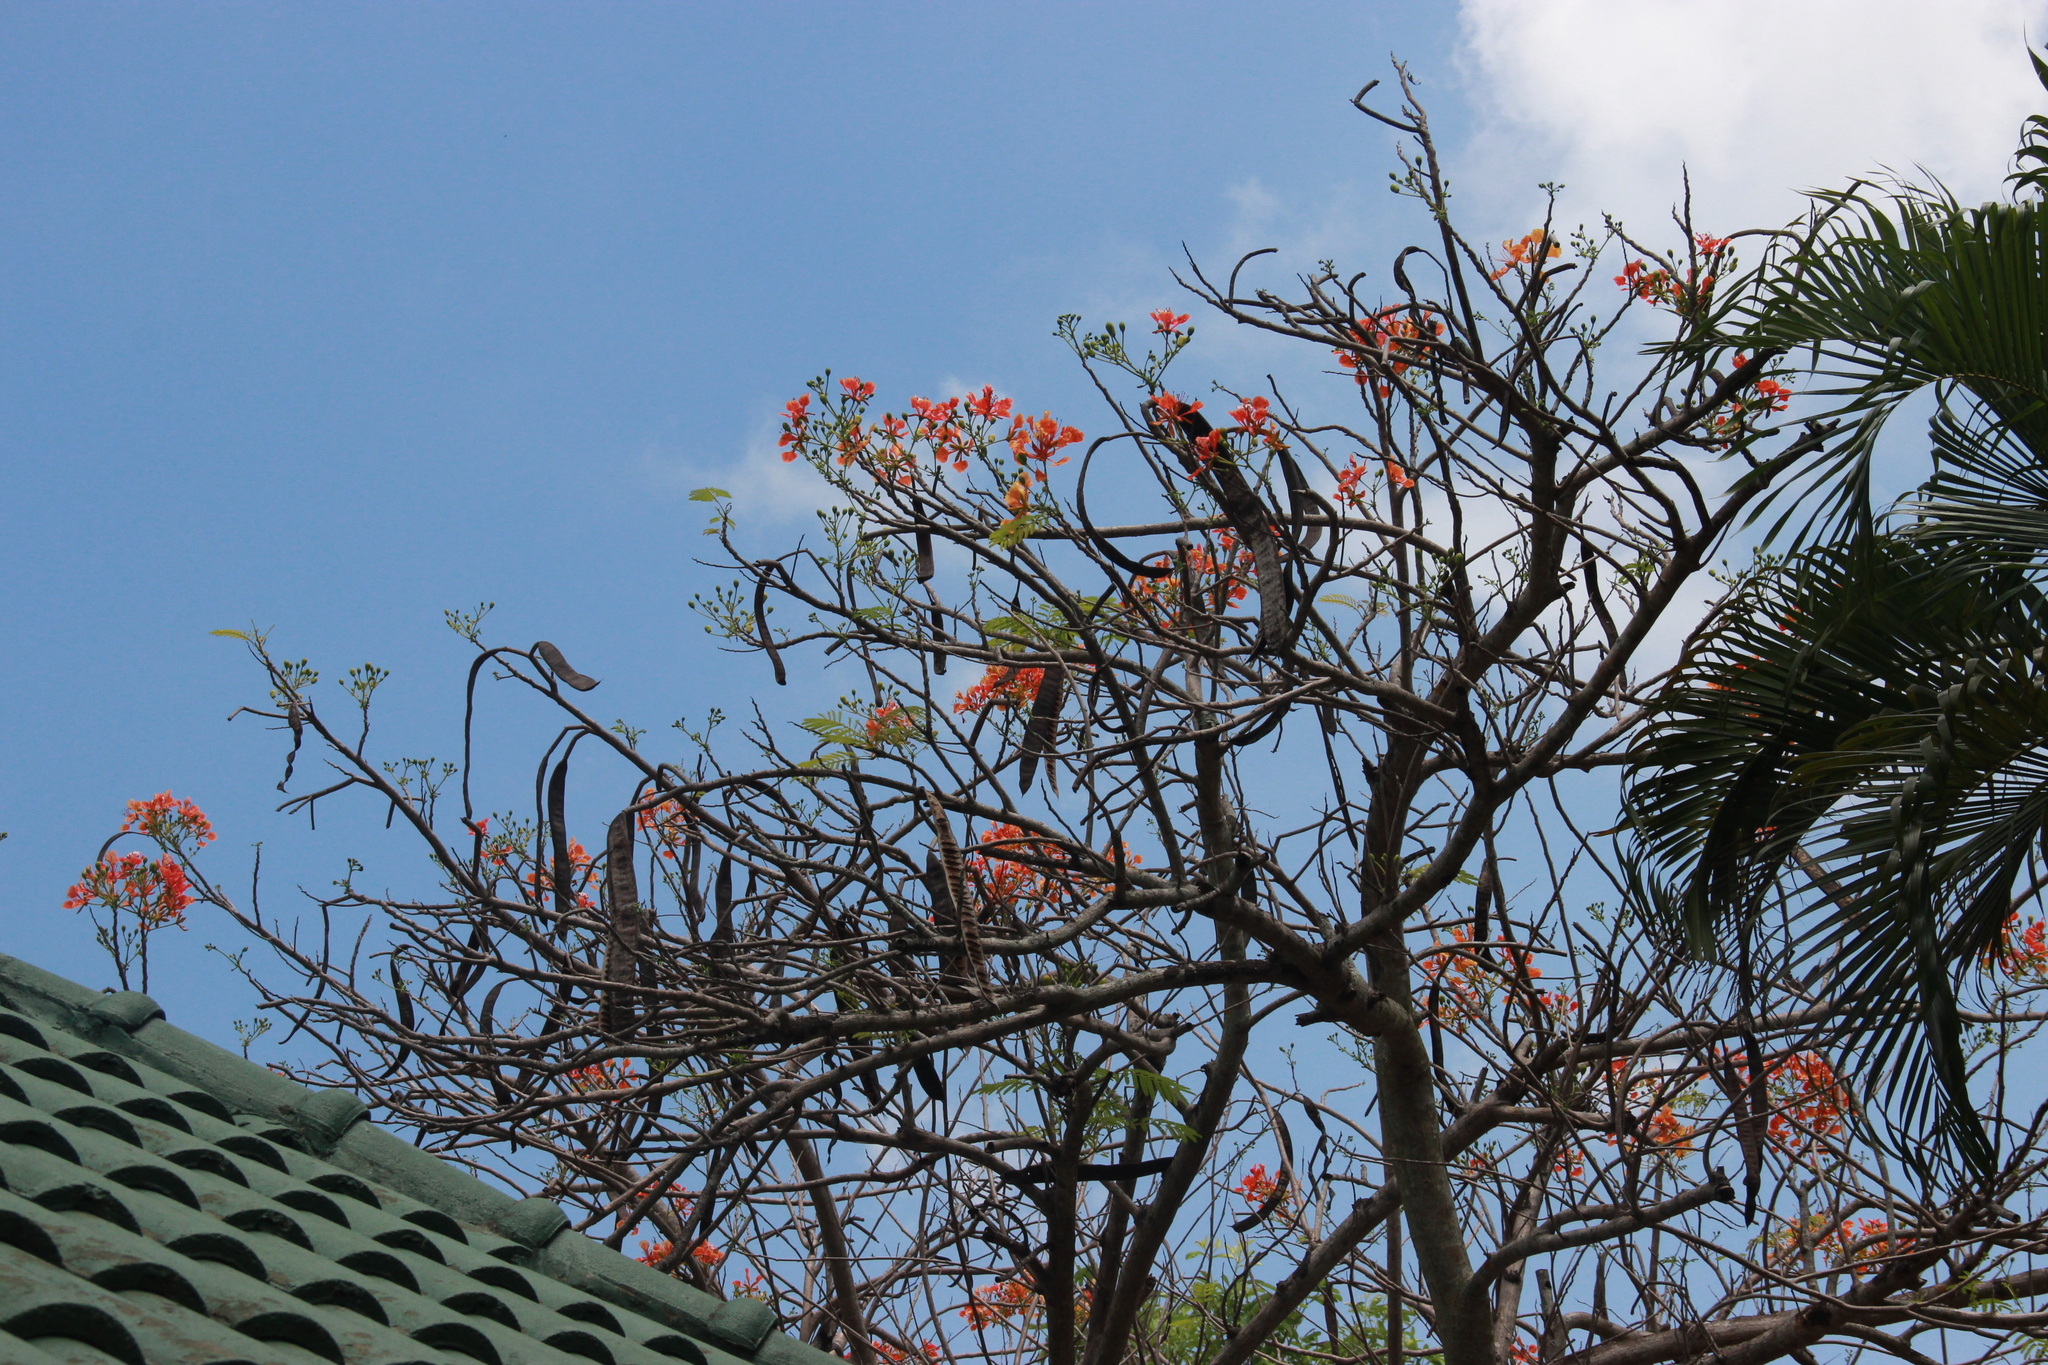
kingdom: Plantae
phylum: Tracheophyta
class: Magnoliopsida
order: Fabales
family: Fabaceae
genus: Delonix
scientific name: Delonix regia
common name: Royal poinciana
